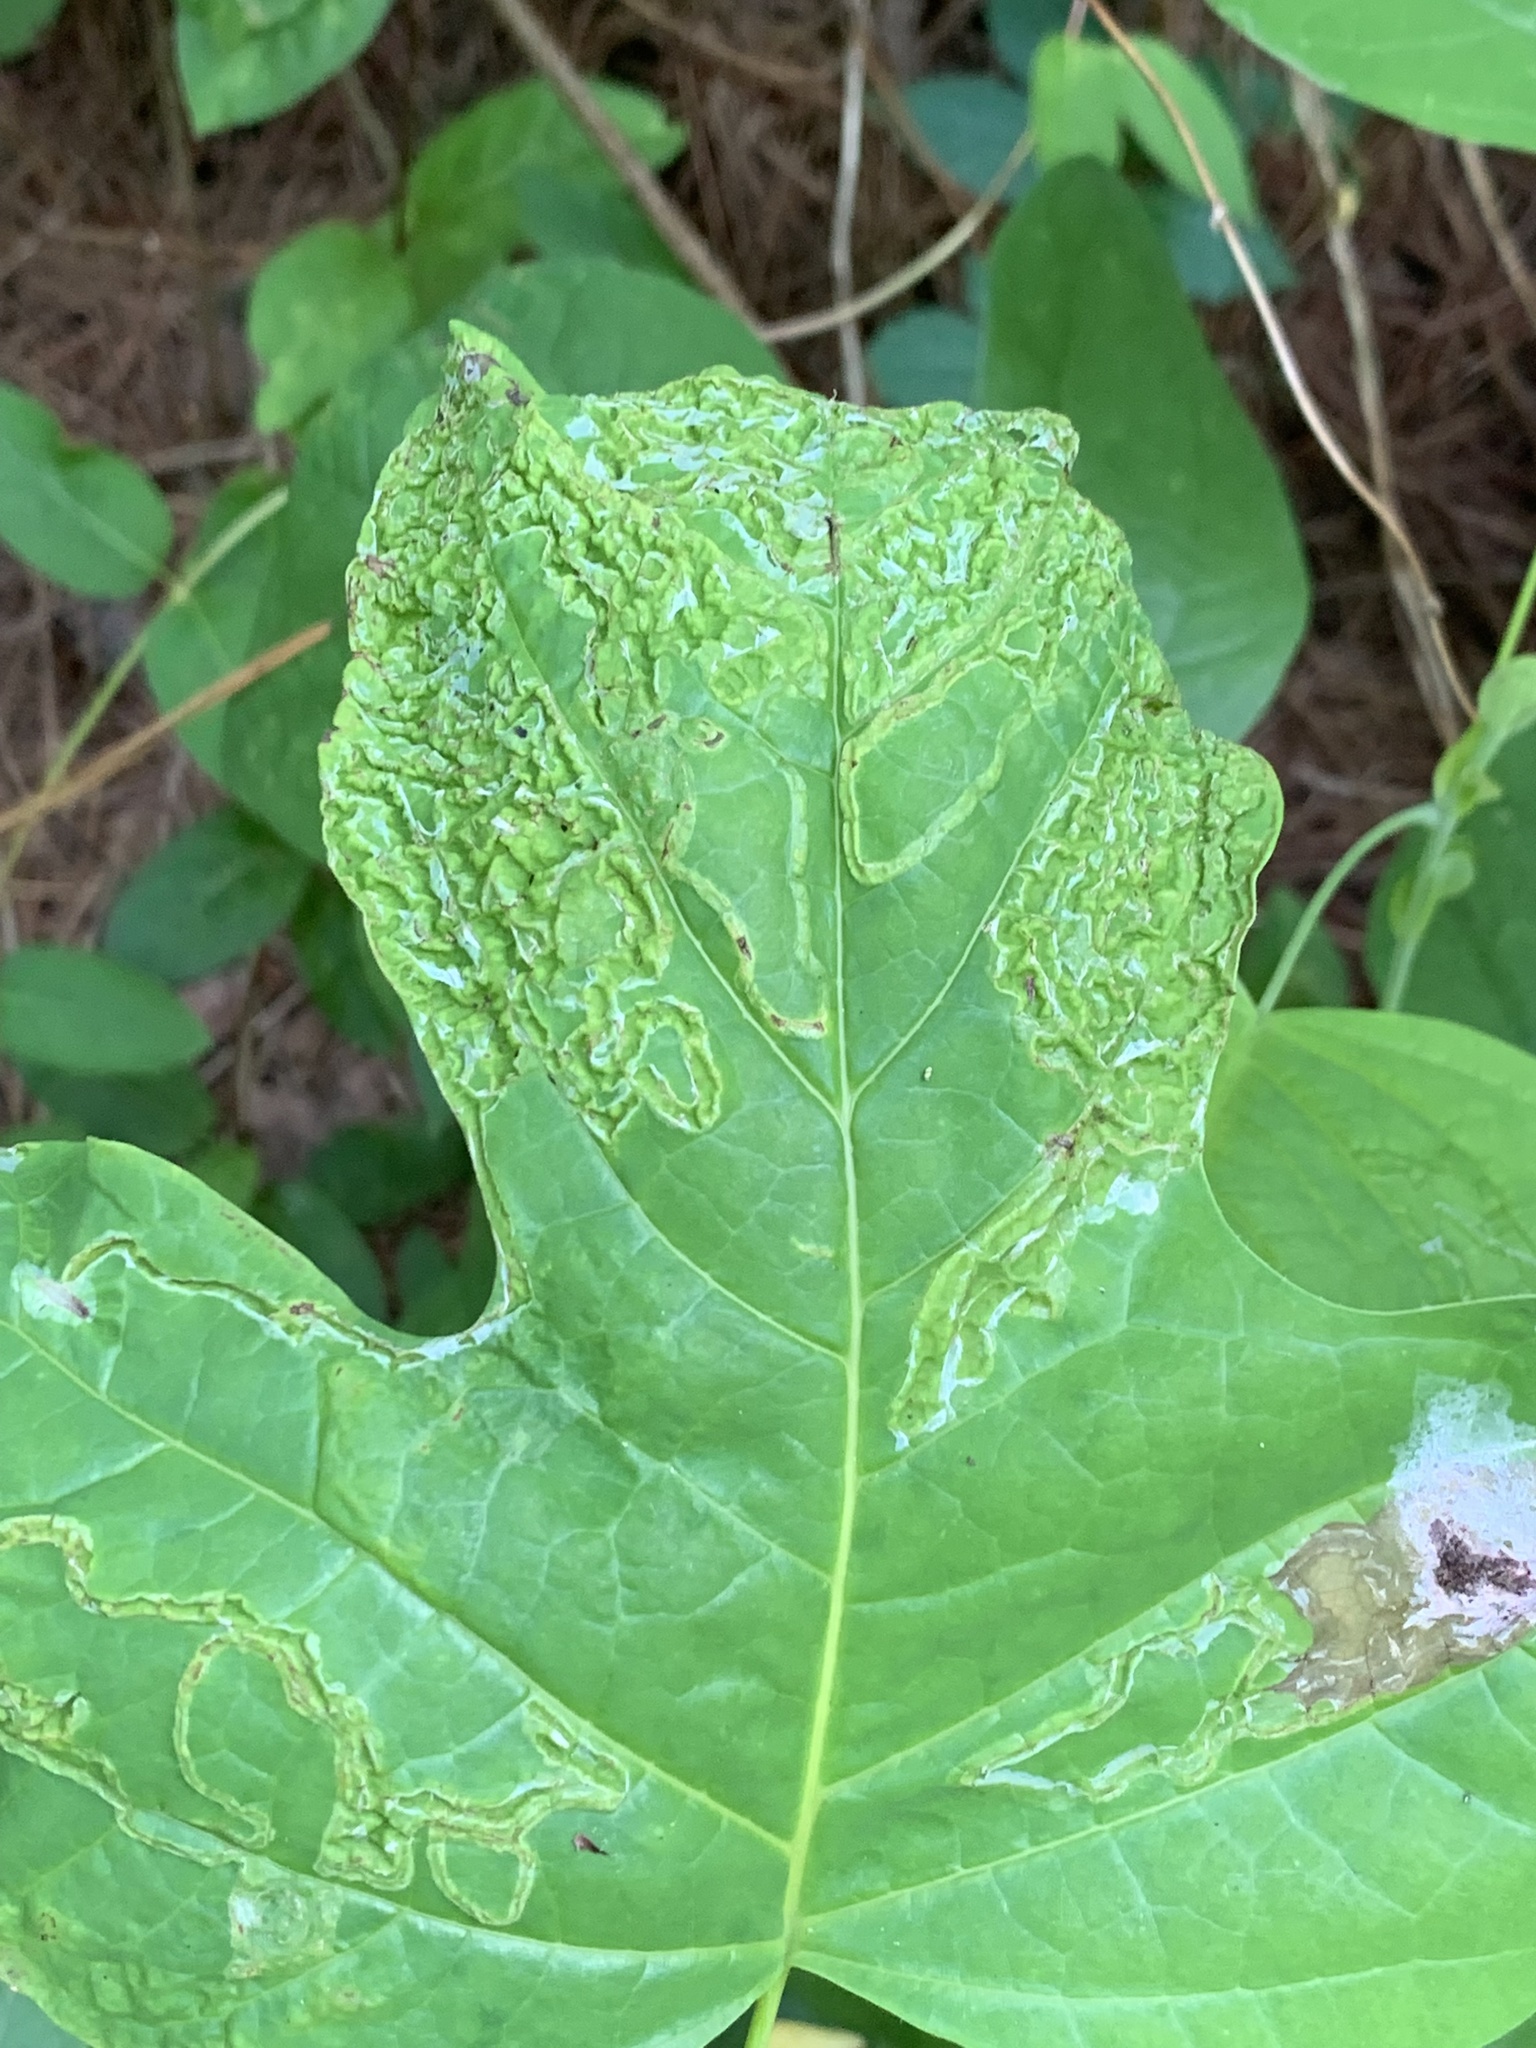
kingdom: Animalia
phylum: Arthropoda
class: Insecta
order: Lepidoptera
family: Gracillariidae
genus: Phyllocnistis
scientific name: Phyllocnistis liriodendronella
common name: Tulip tree leaf miner
